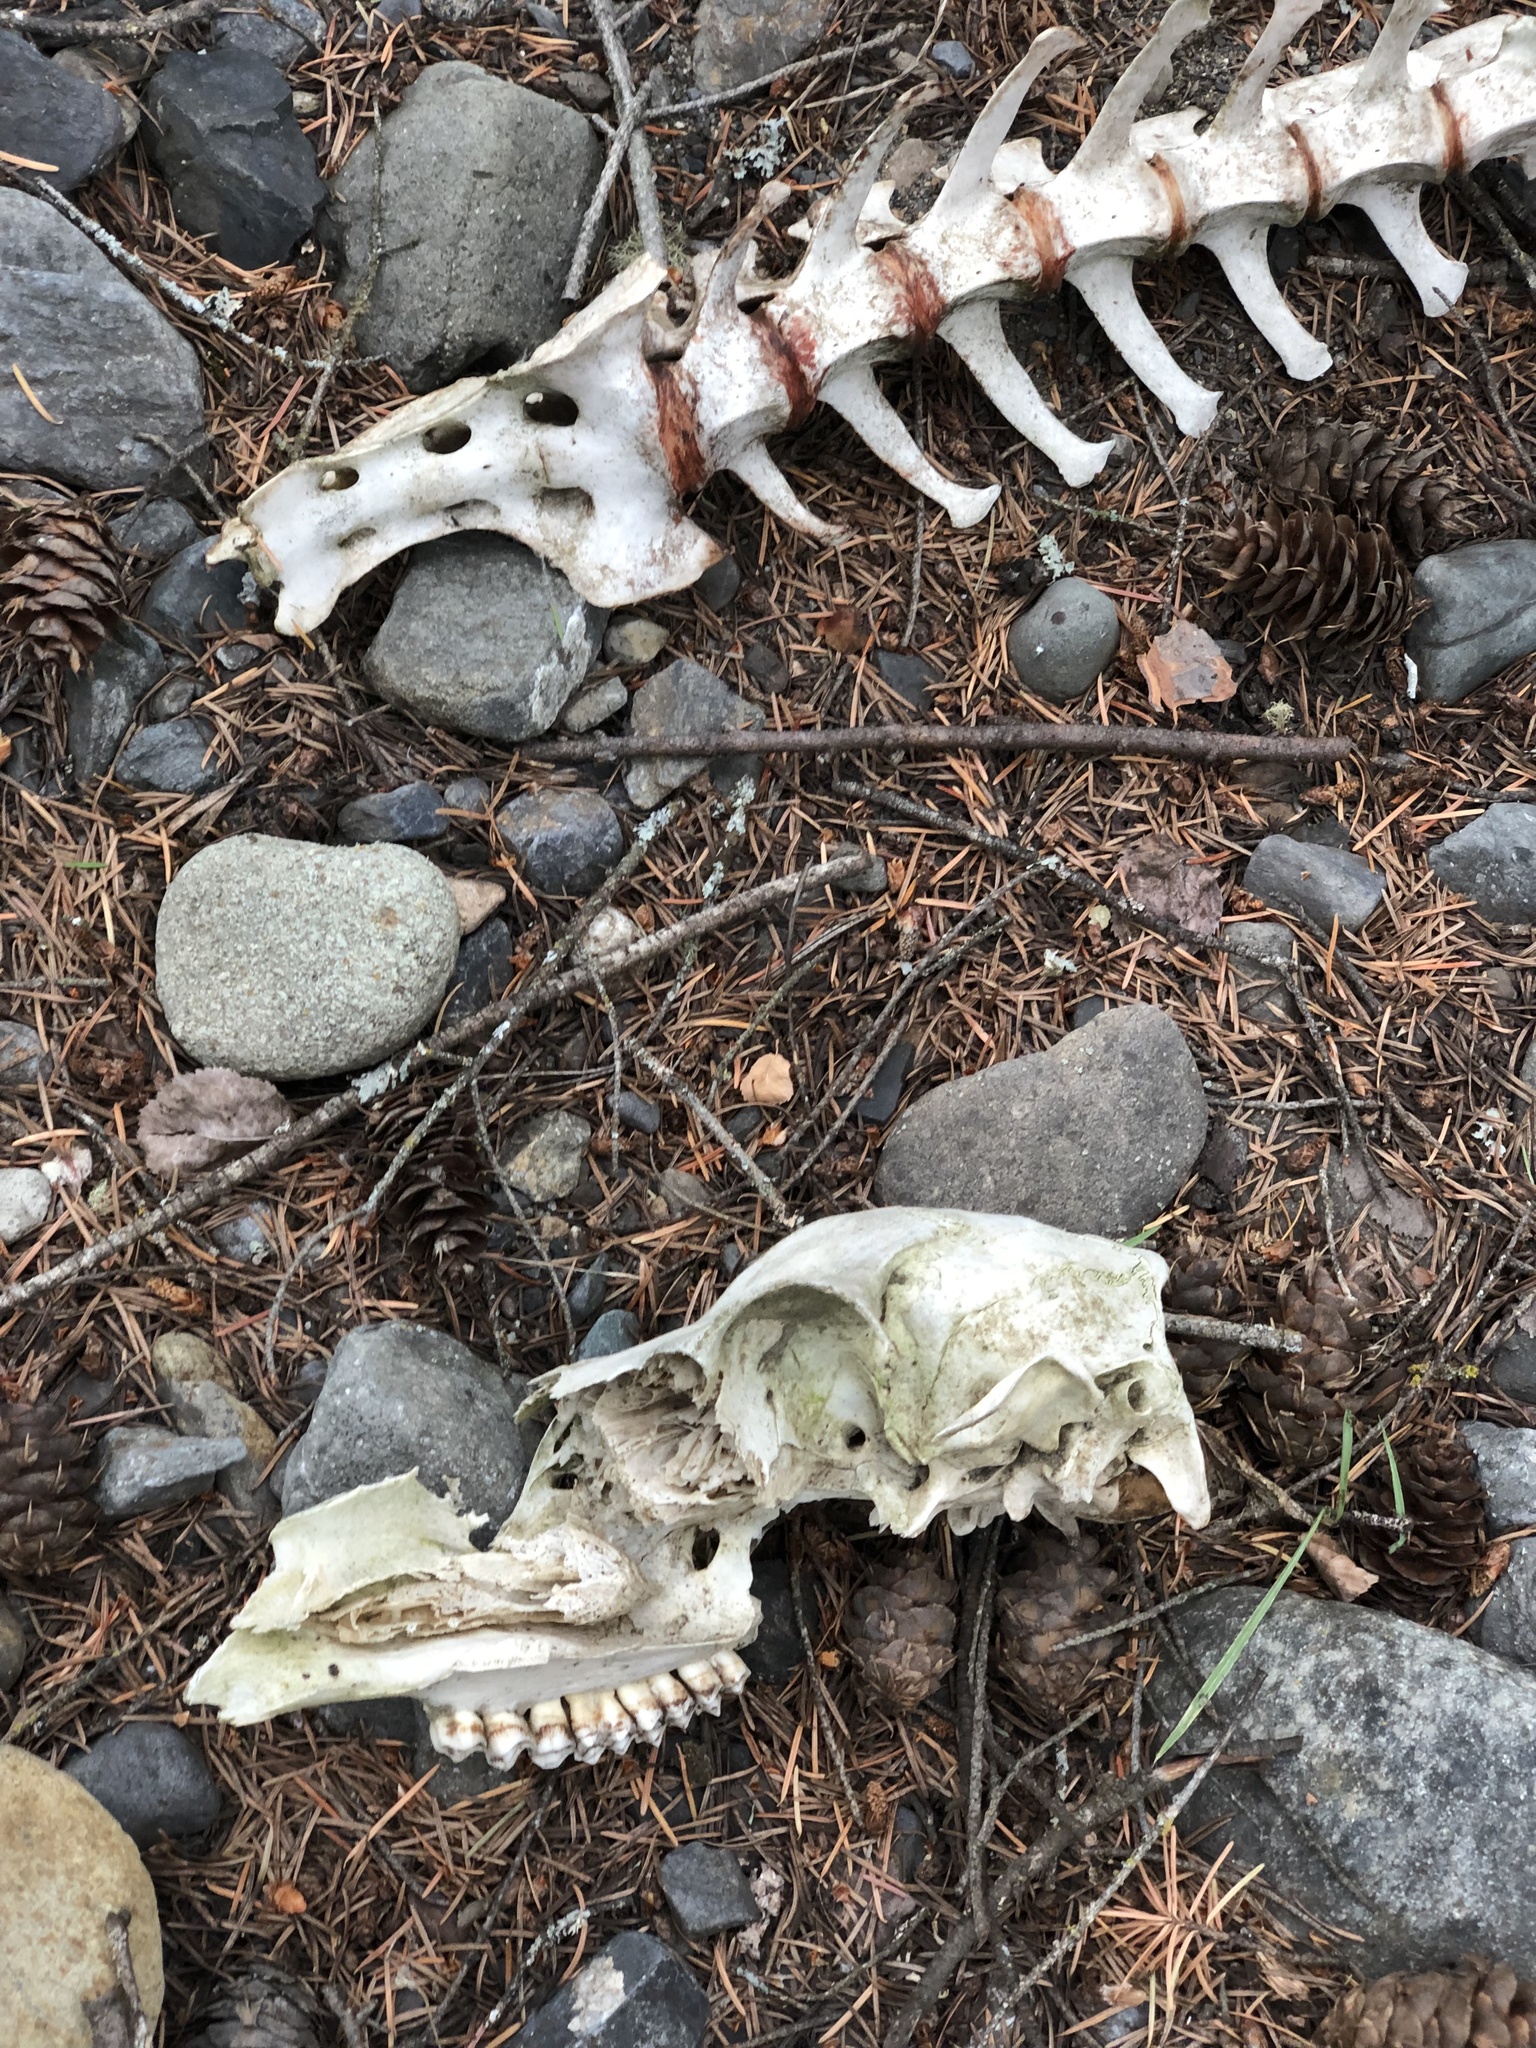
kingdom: Animalia
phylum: Chordata
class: Mammalia
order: Artiodactyla
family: Cervidae
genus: Odocoileus
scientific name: Odocoileus hemionus
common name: Mule deer
